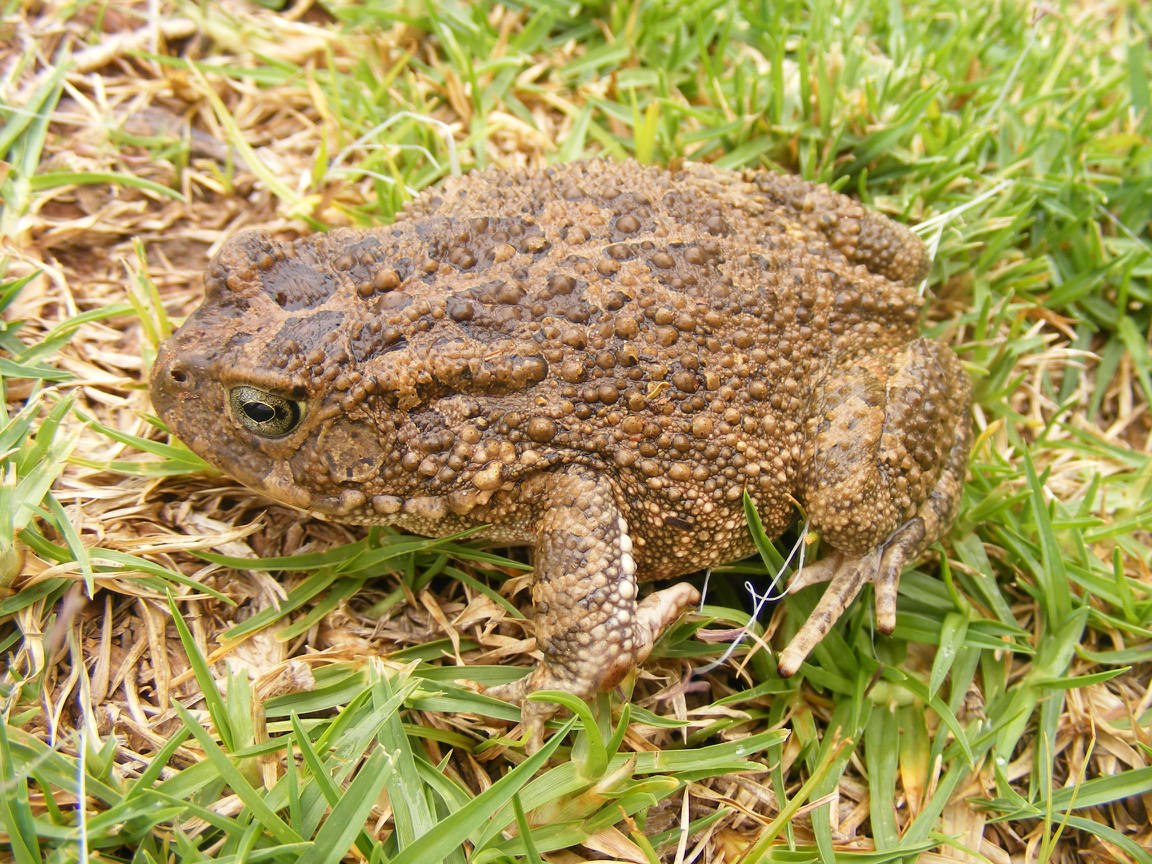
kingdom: Animalia
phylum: Chordata
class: Amphibia
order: Anura
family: Bufonidae
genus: Sclerophrys
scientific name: Sclerophrys gutturalis
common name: African common toad
